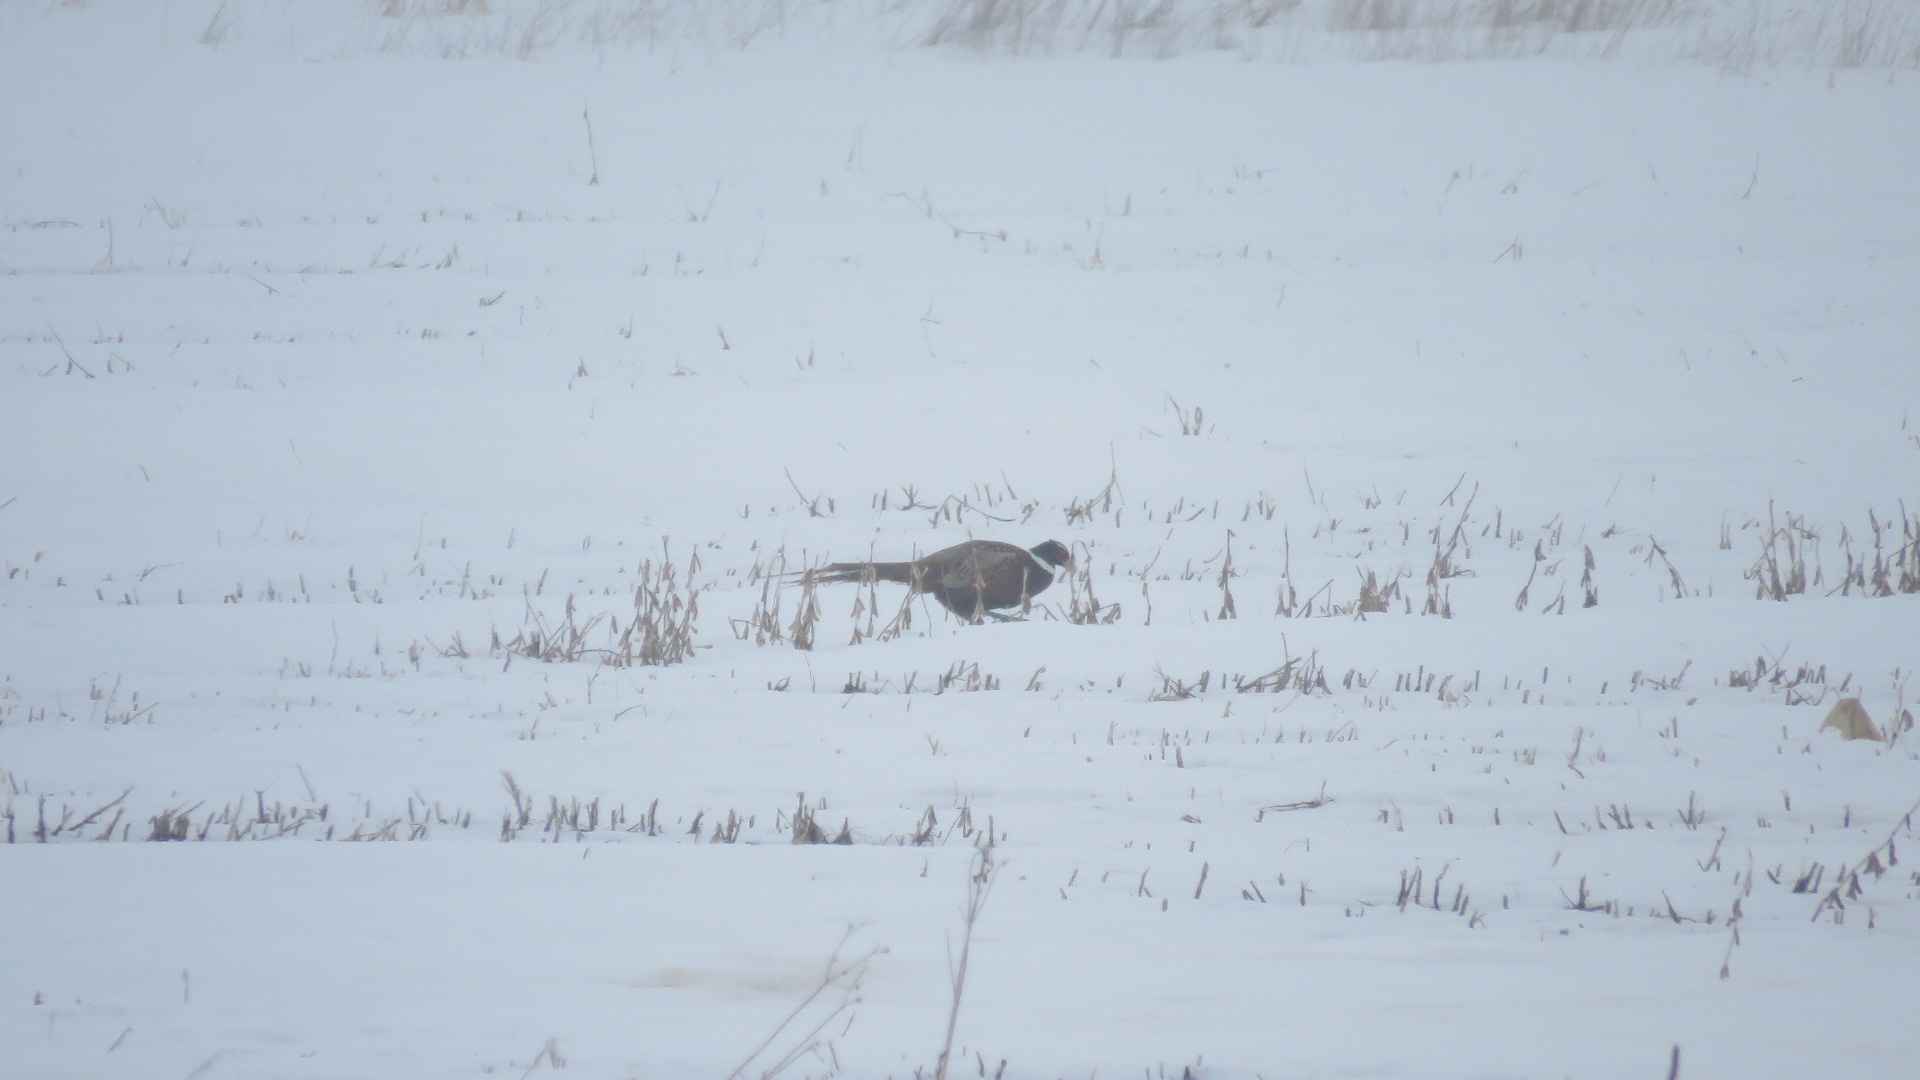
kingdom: Animalia
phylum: Chordata
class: Aves
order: Galliformes
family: Phasianidae
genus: Phasianus
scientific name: Phasianus colchicus
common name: Common pheasant
